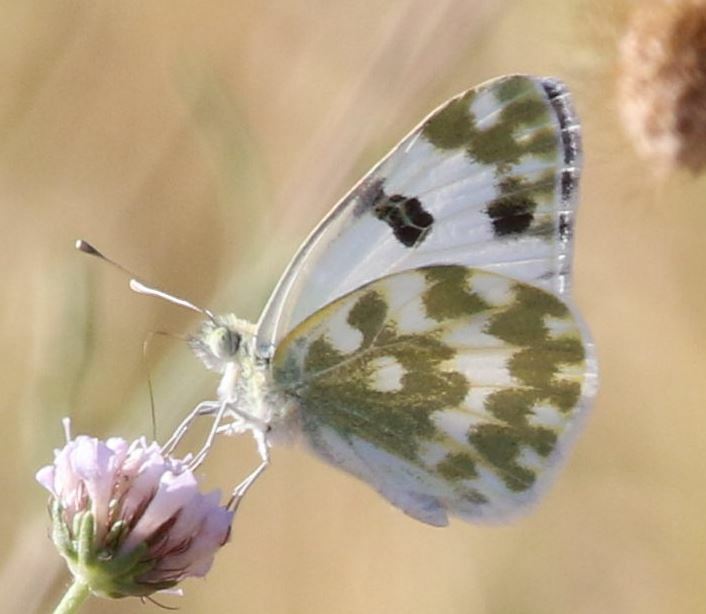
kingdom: Animalia
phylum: Arthropoda
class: Insecta
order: Lepidoptera
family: Pieridae
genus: Pontia
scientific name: Pontia daplidice
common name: Bath white
